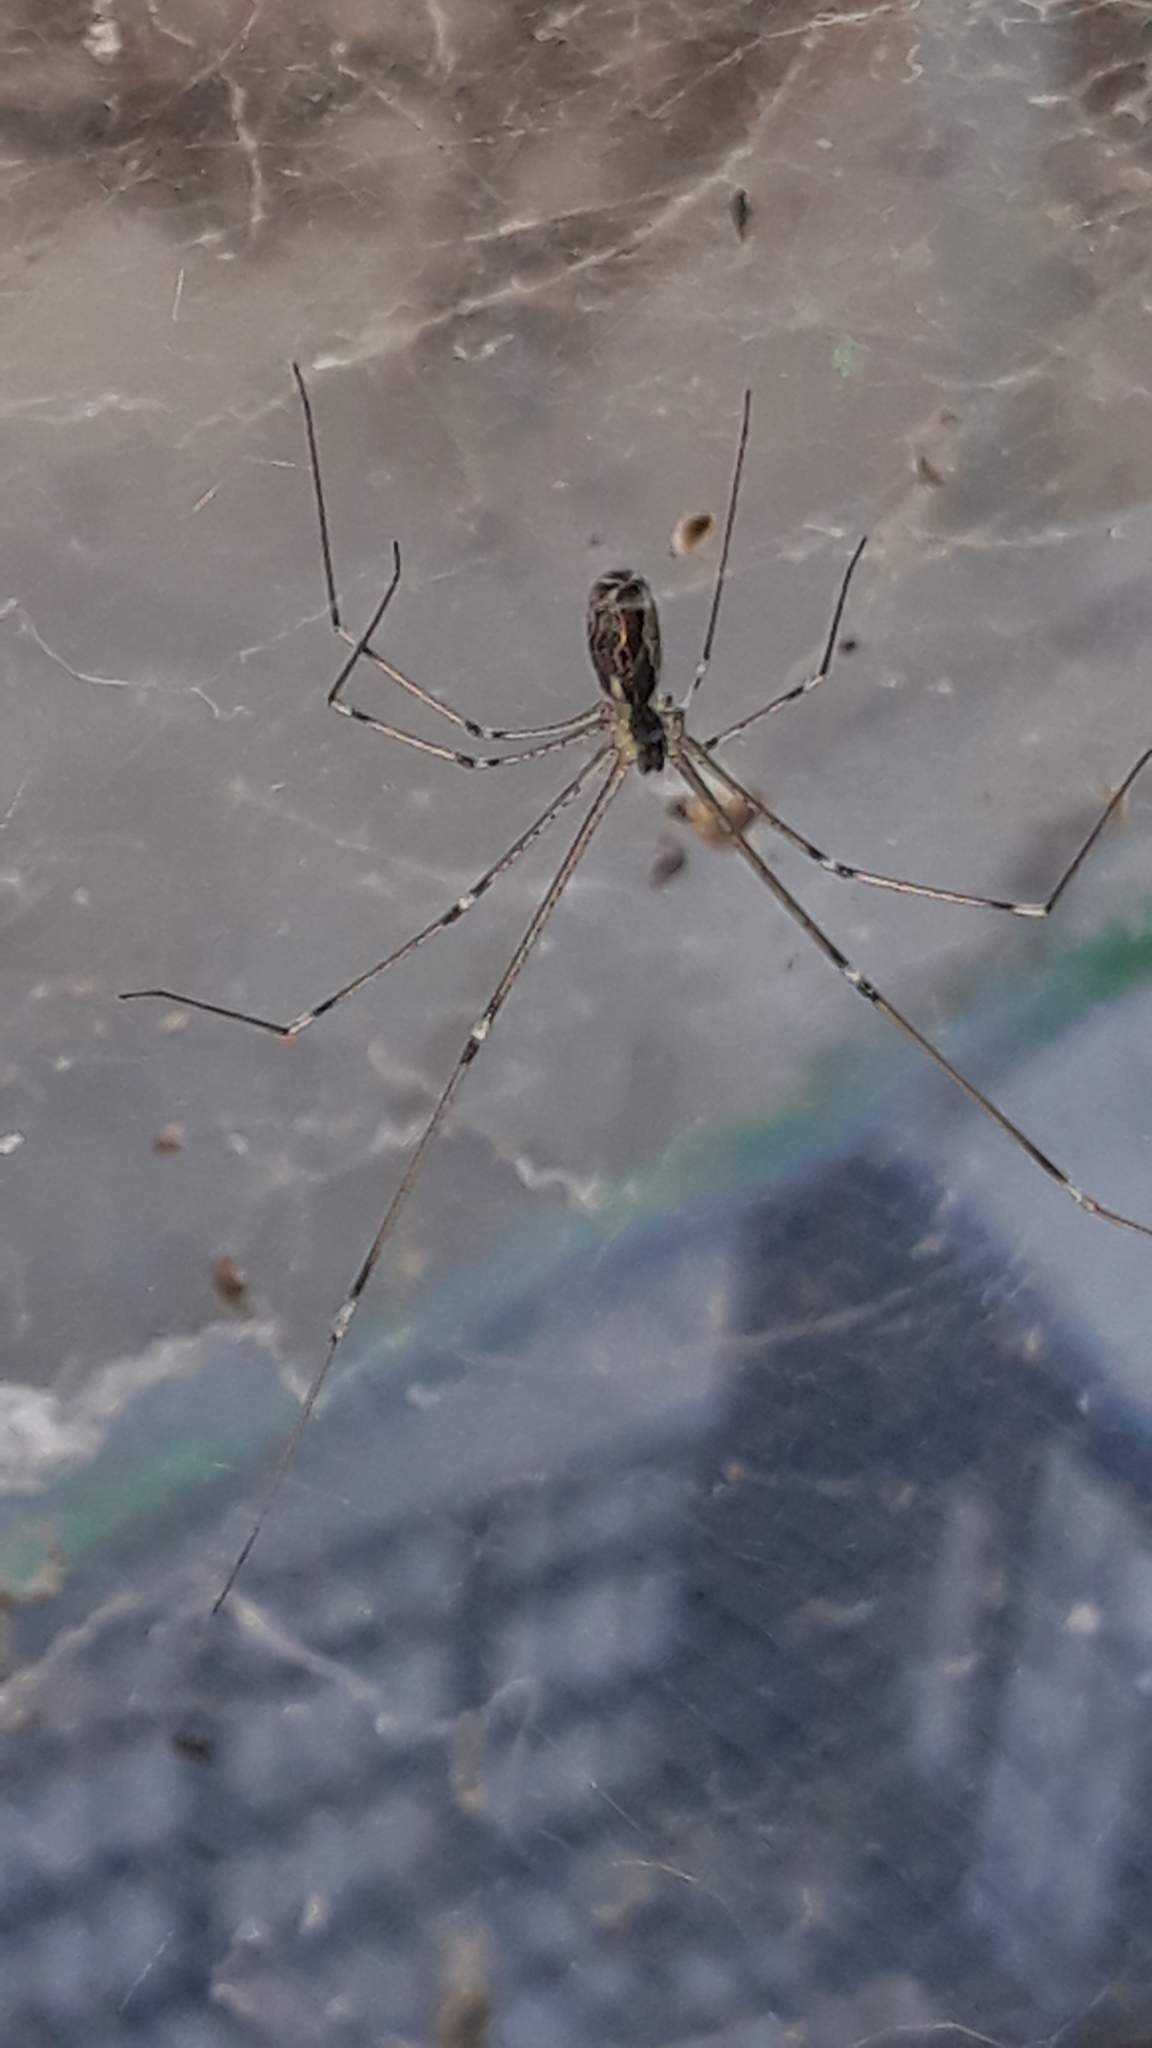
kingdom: Animalia
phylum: Arthropoda
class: Arachnida
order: Araneae
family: Pholcidae
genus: Holocnemus
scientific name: Holocnemus pluchei
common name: Marbled cellar spider
